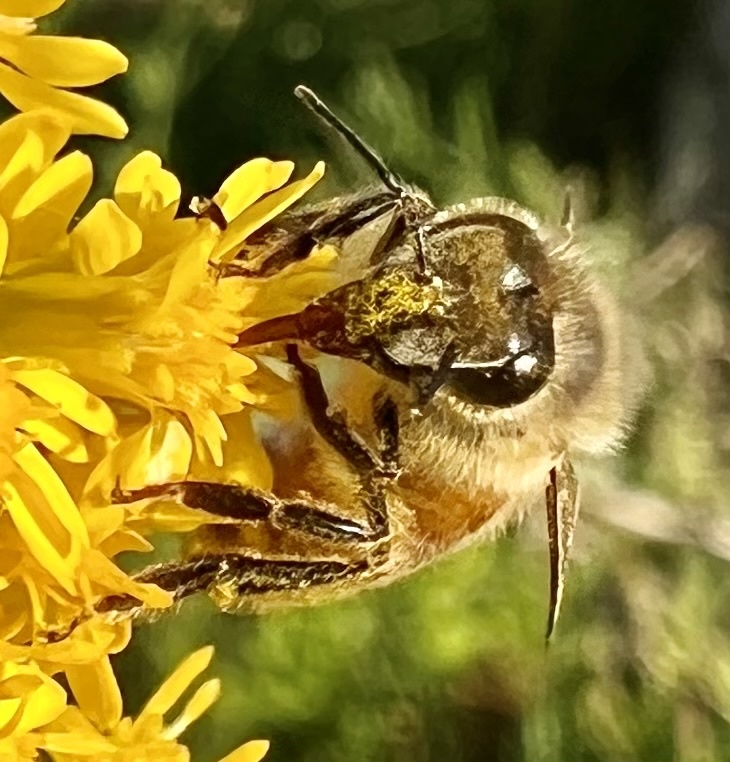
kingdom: Animalia
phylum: Arthropoda
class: Insecta
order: Hymenoptera
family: Apidae
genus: Apis
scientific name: Apis mellifera
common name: Honey bee
